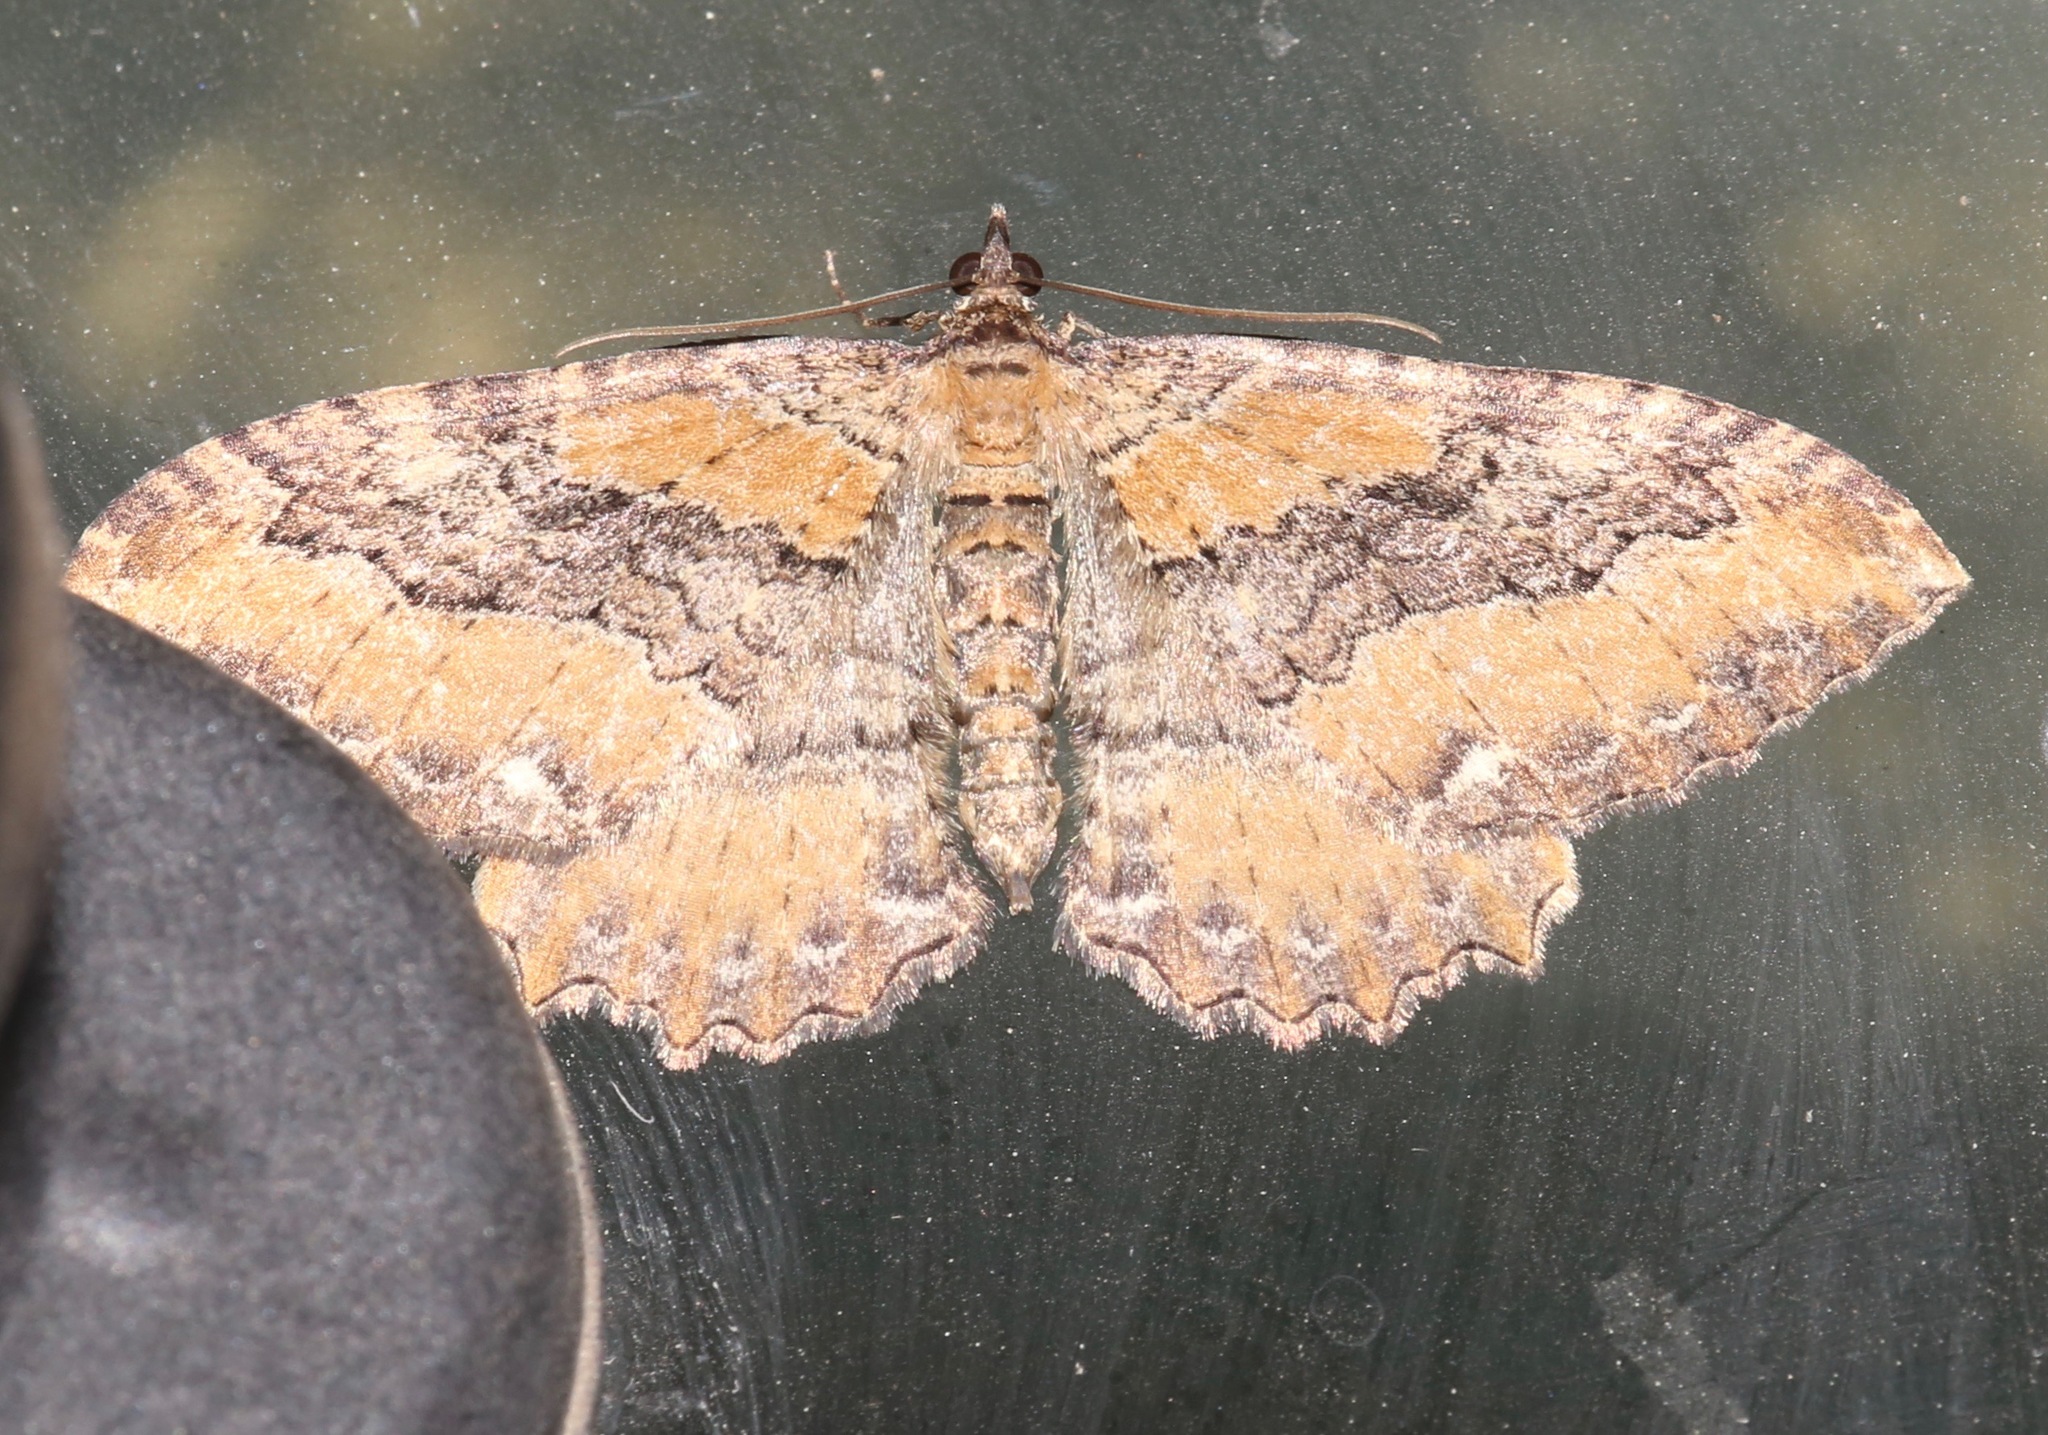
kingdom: Animalia
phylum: Arthropoda
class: Insecta
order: Lepidoptera
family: Geometridae
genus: Rheumaptera
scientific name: Rheumaptera
